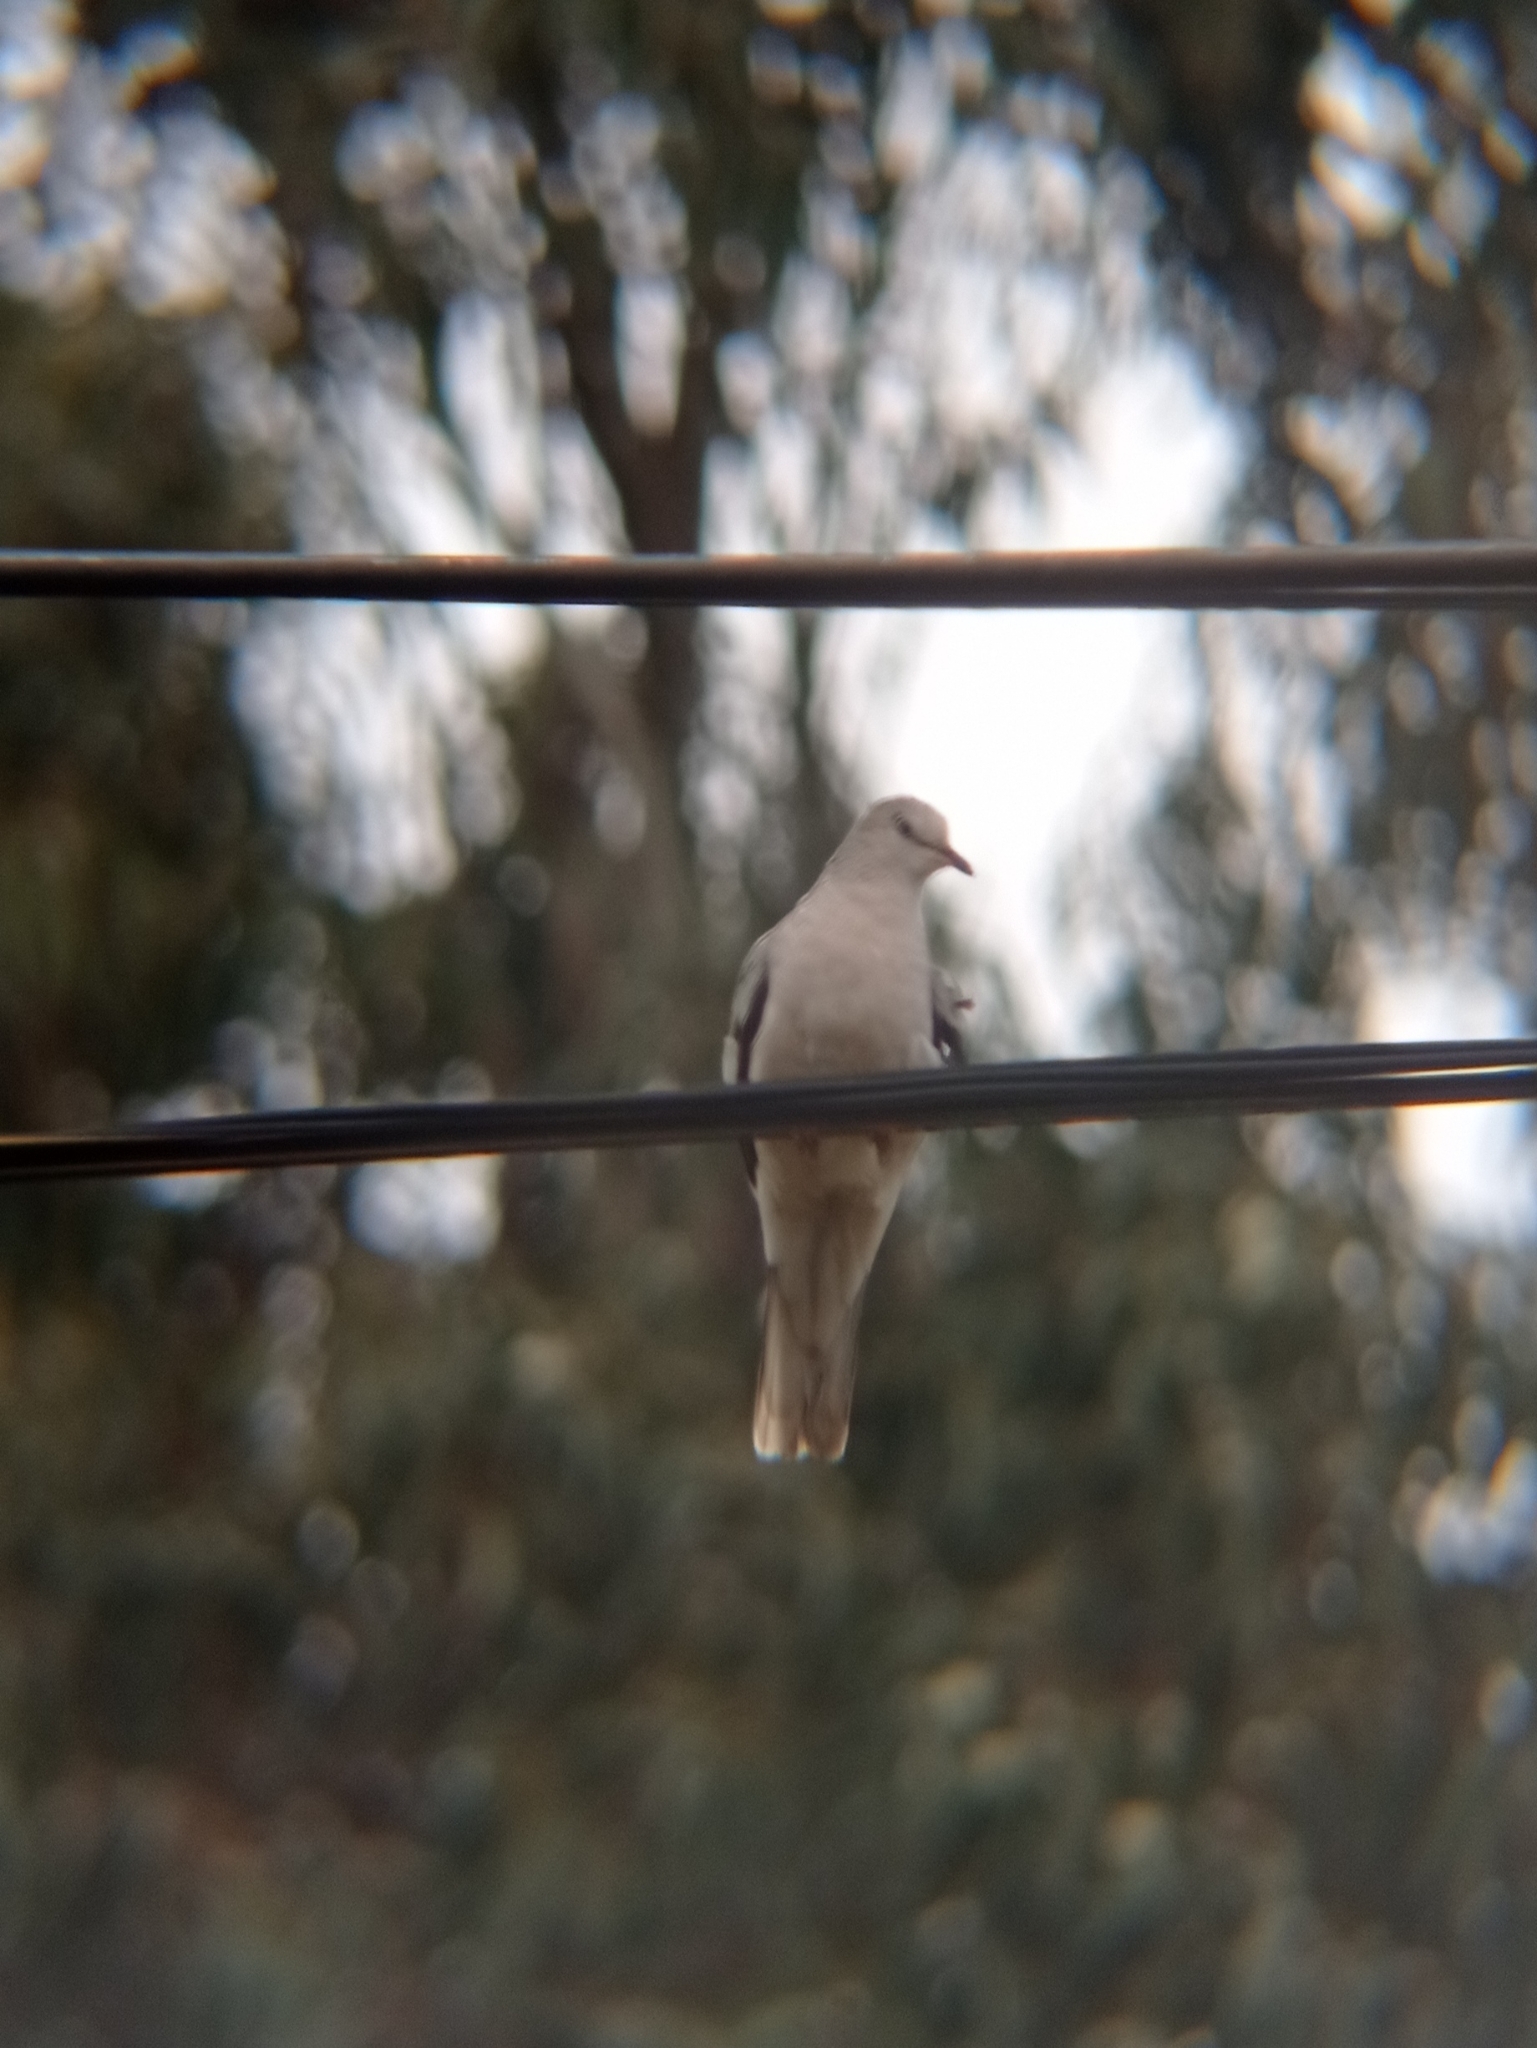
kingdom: Animalia
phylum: Chordata
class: Aves
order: Columbiformes
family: Columbidae
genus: Columbina
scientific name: Columbina picui
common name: Picui ground dove
